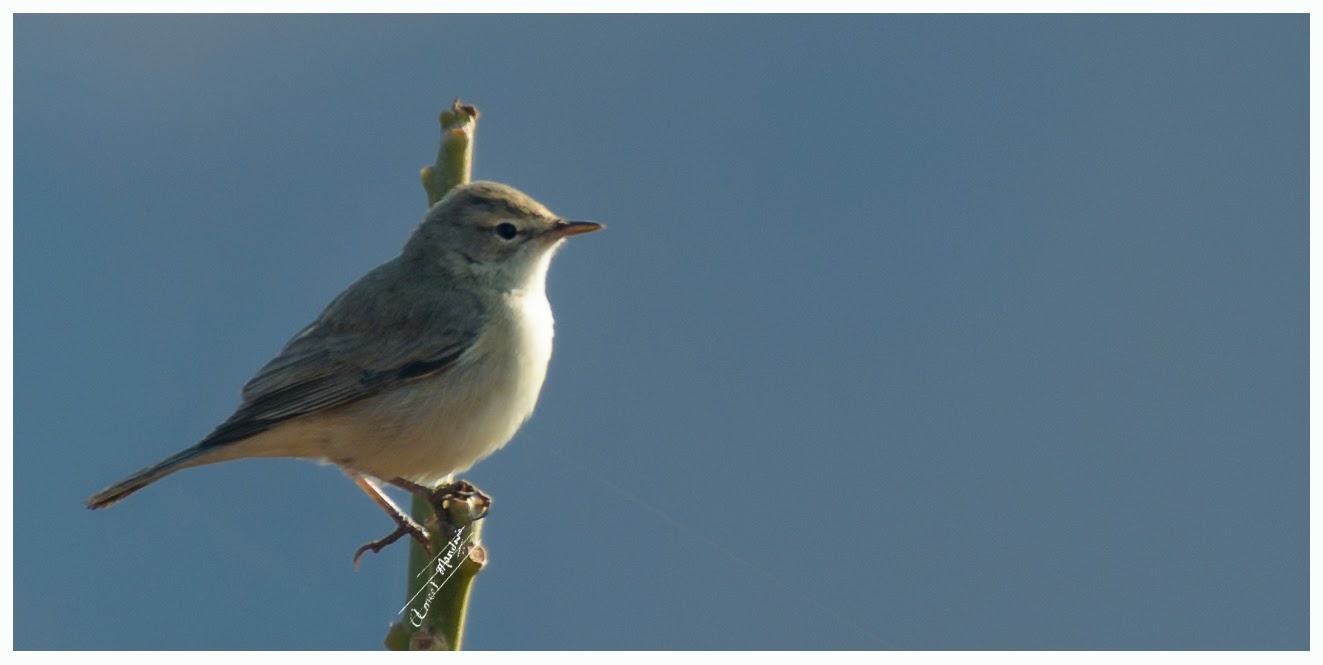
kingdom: Animalia
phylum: Chordata
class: Aves
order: Passeriformes
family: Acrocephalidae
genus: Iduna
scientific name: Iduna caligata
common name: Booted warbler
